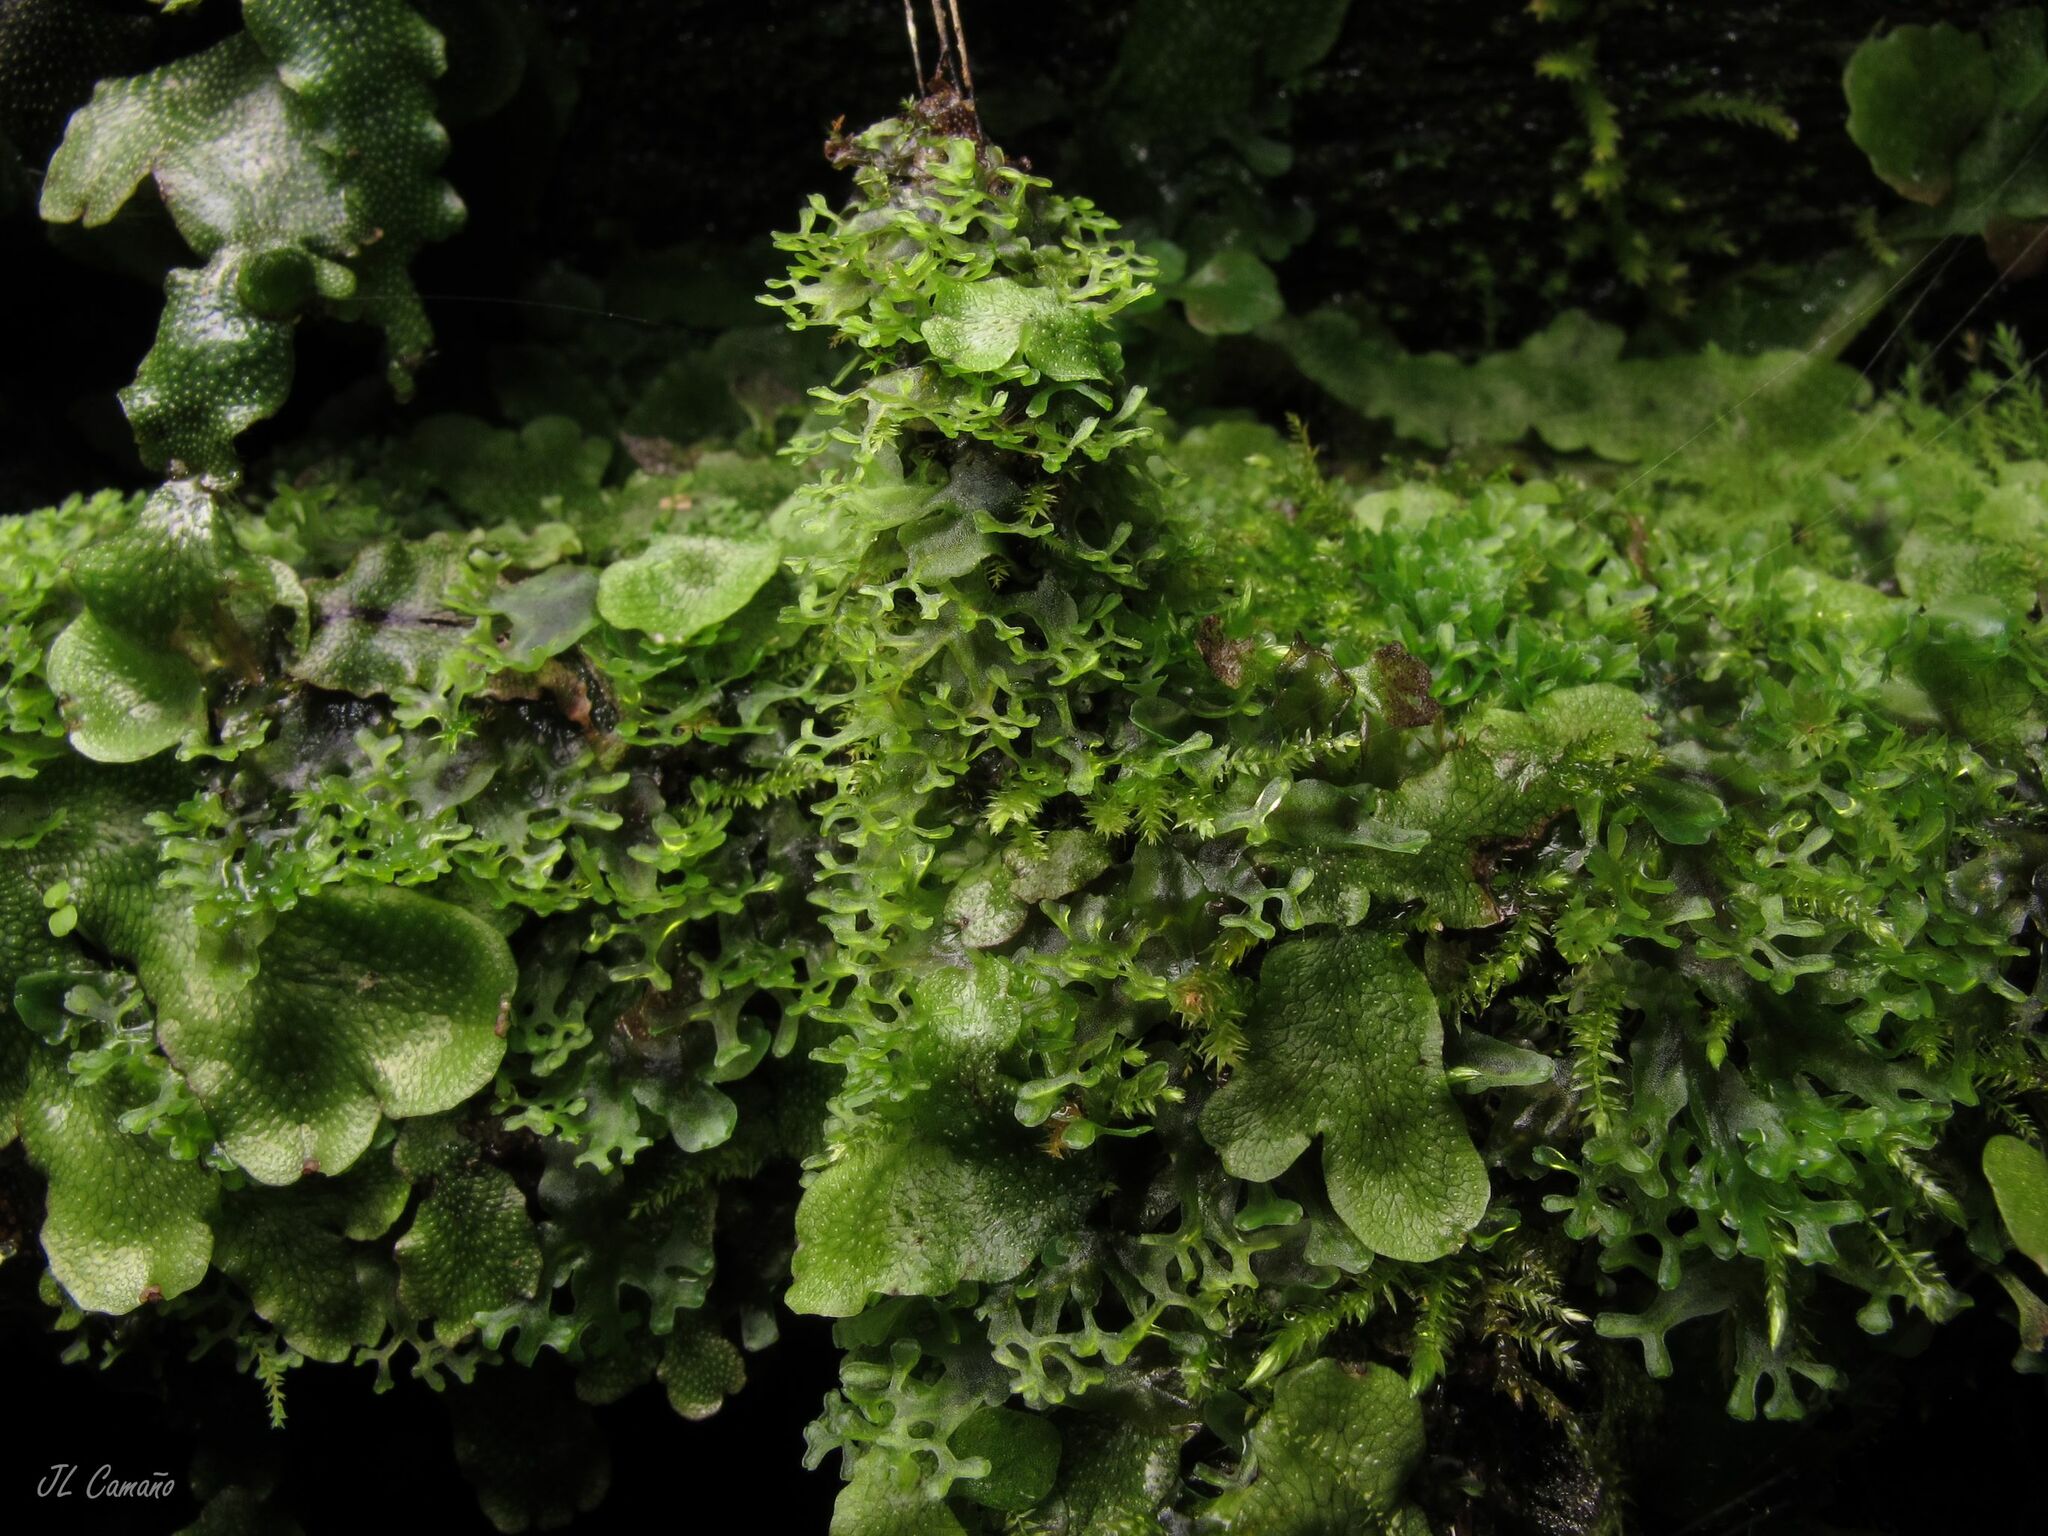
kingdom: Plantae
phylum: Marchantiophyta
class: Jungermanniopsida
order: Pelliales
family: Pelliaceae
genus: Apopellia
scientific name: Apopellia endiviifolia
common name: Endive pellia
